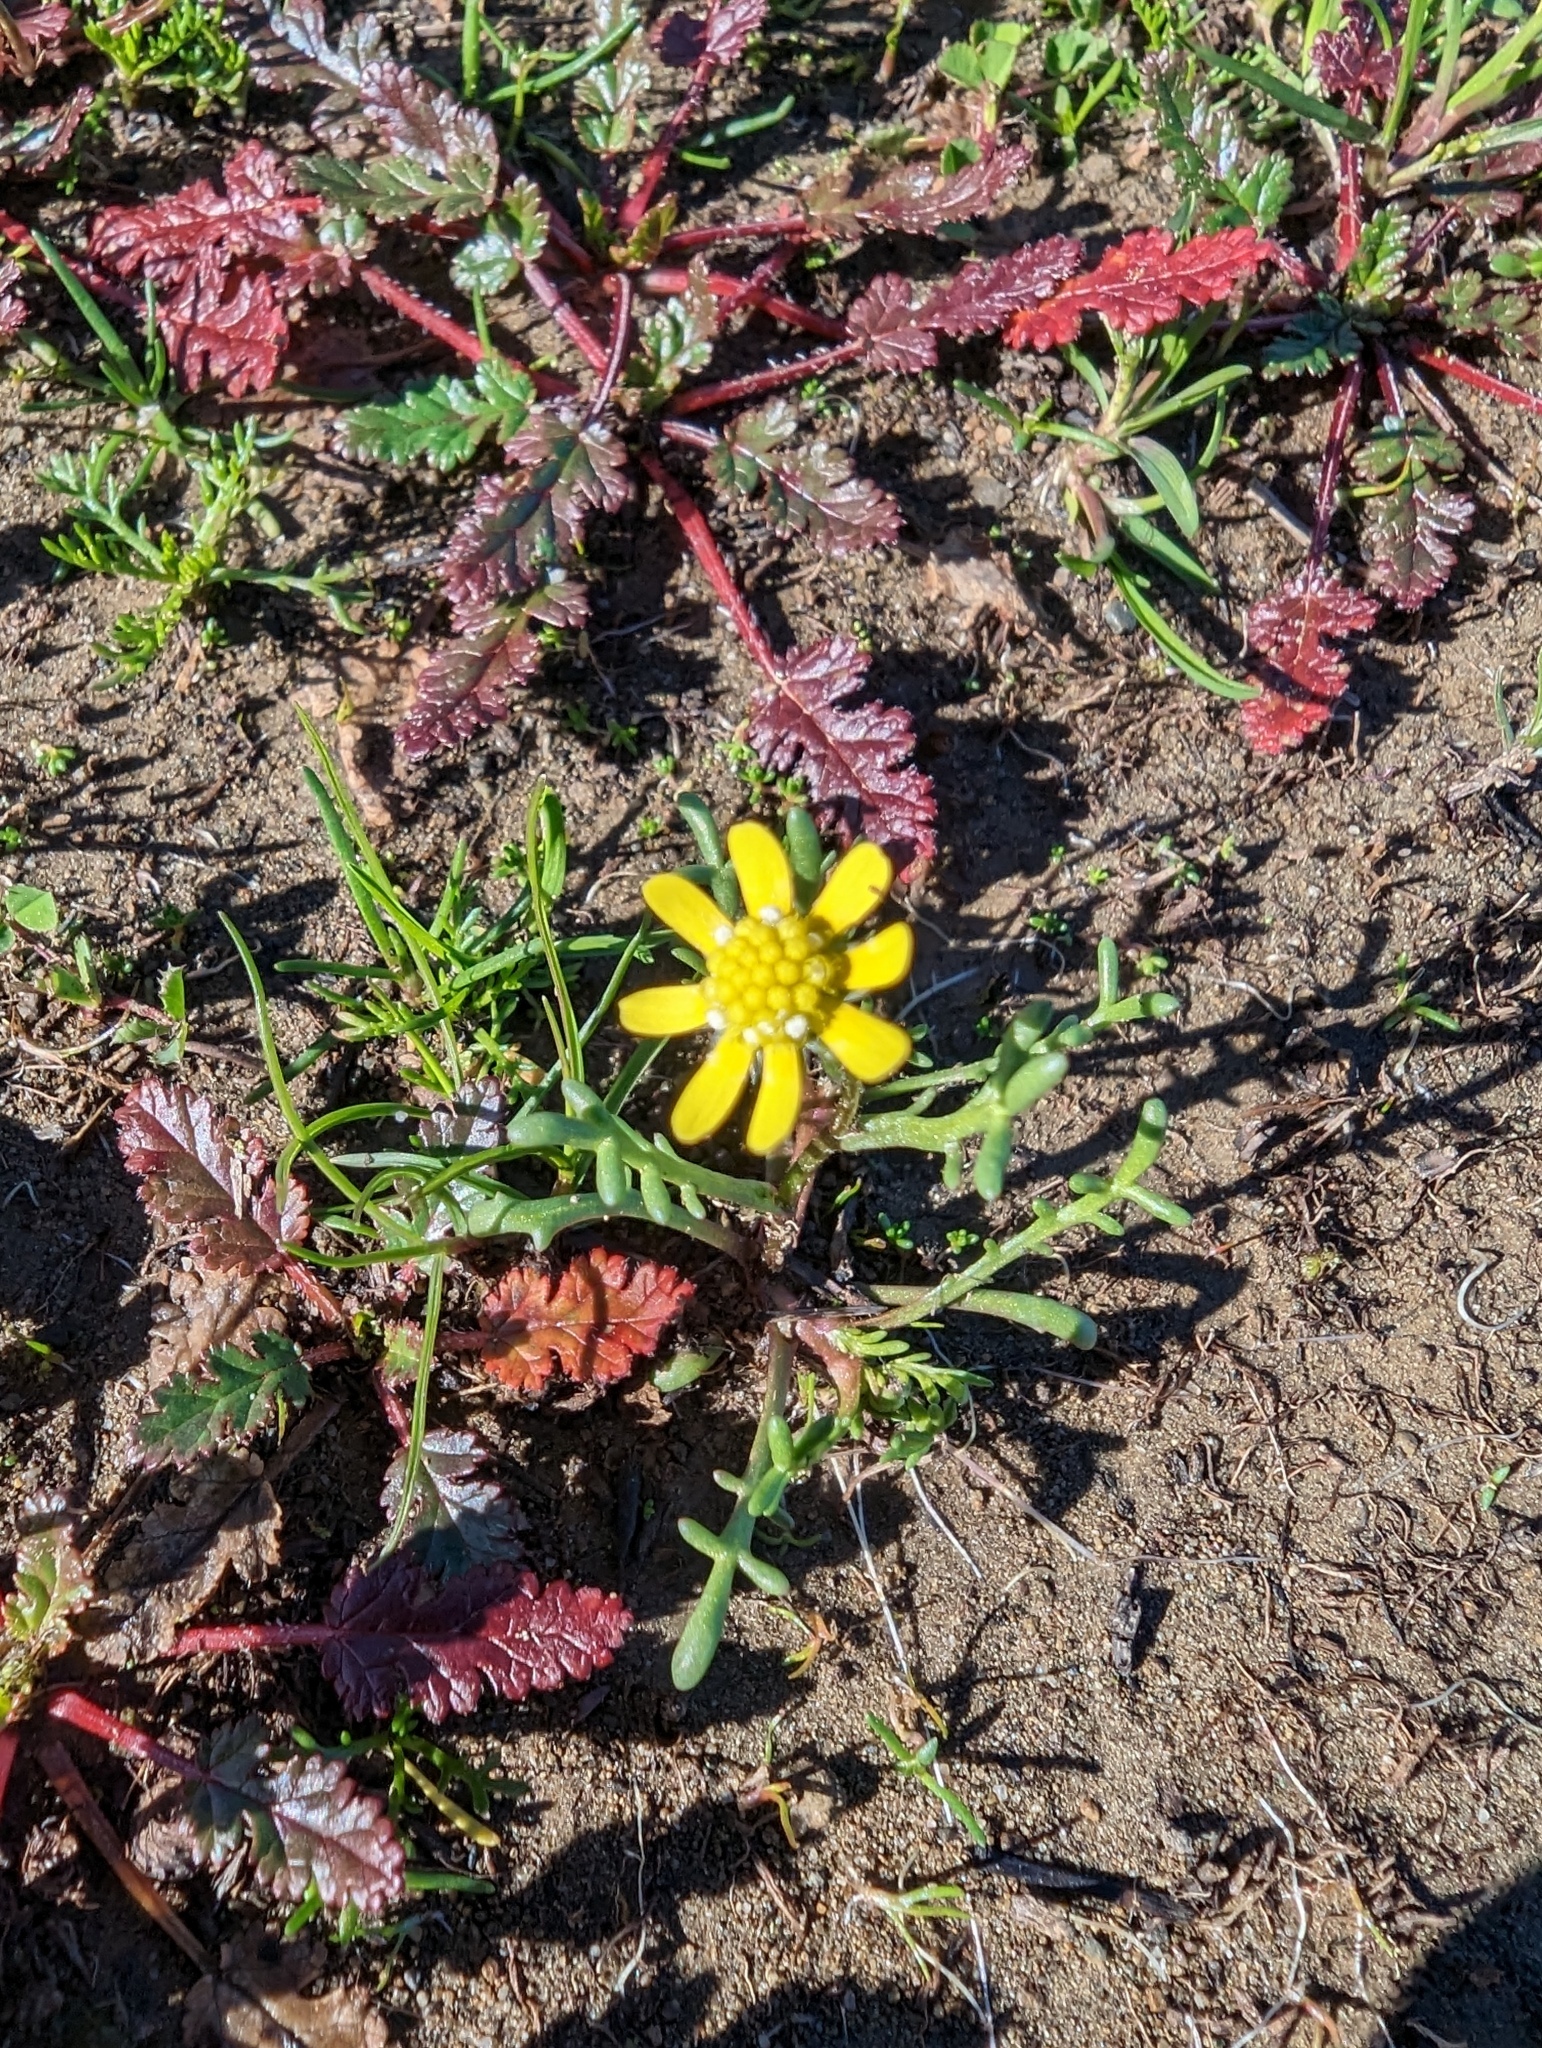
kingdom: Plantae
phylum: Tracheophyta
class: Magnoliopsida
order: Asterales
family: Asteraceae
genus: Blennosperma
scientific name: Blennosperma nanum
